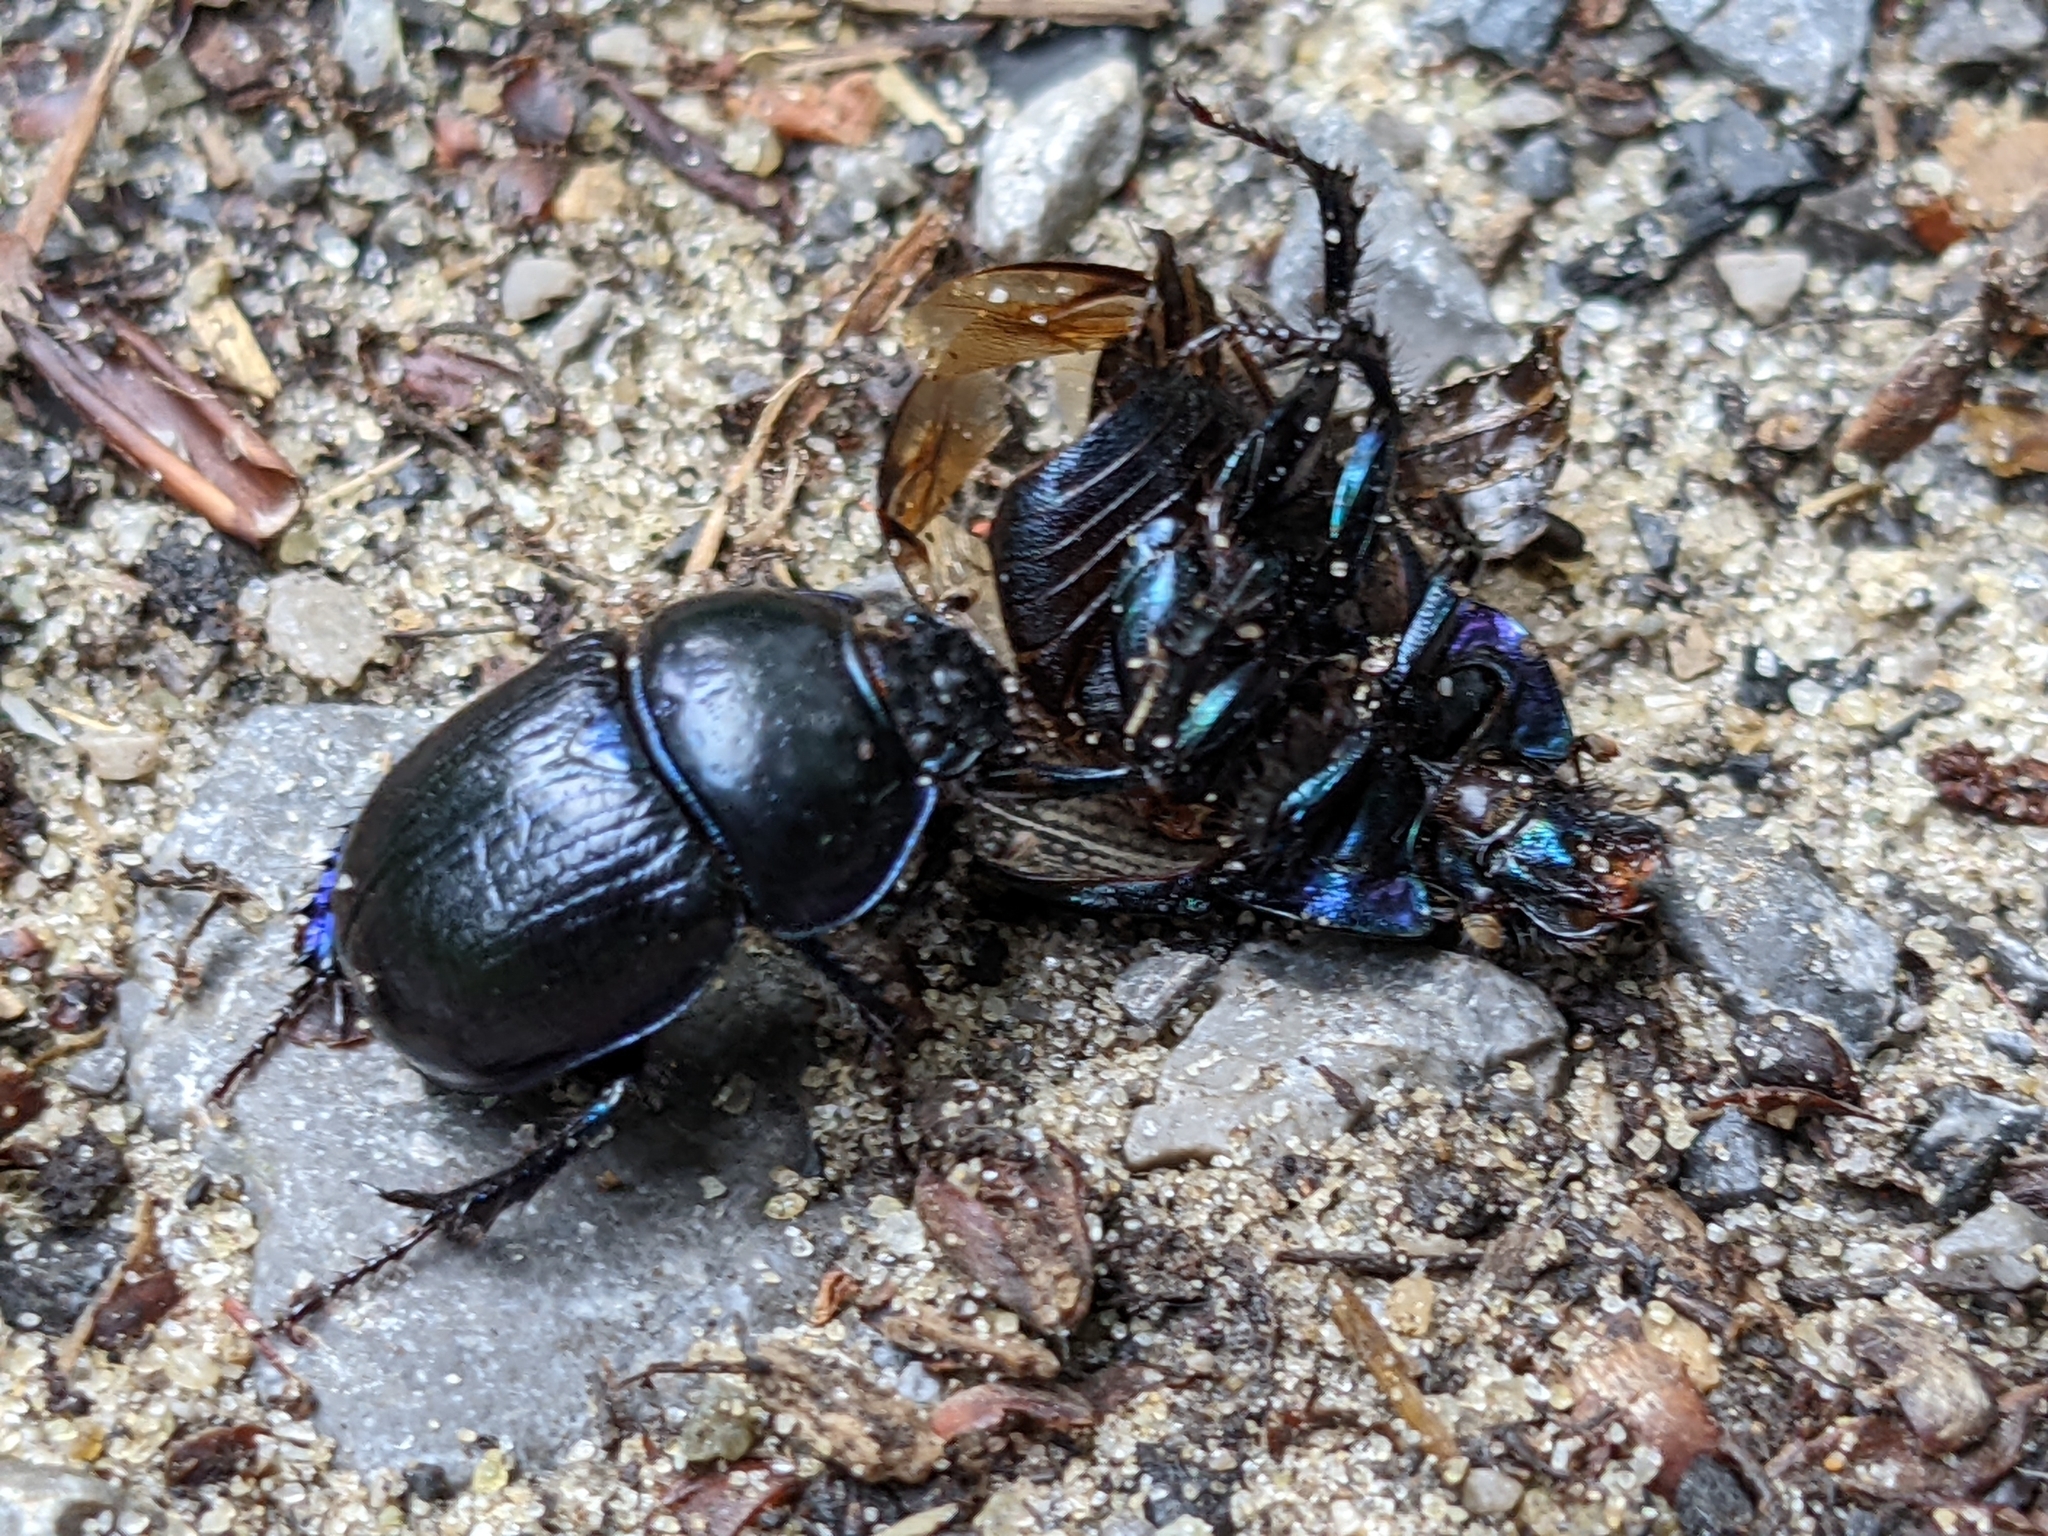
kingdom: Animalia
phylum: Arthropoda
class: Insecta
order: Coleoptera
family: Geotrupidae
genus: Anoplotrupes
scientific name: Anoplotrupes stercorosus
